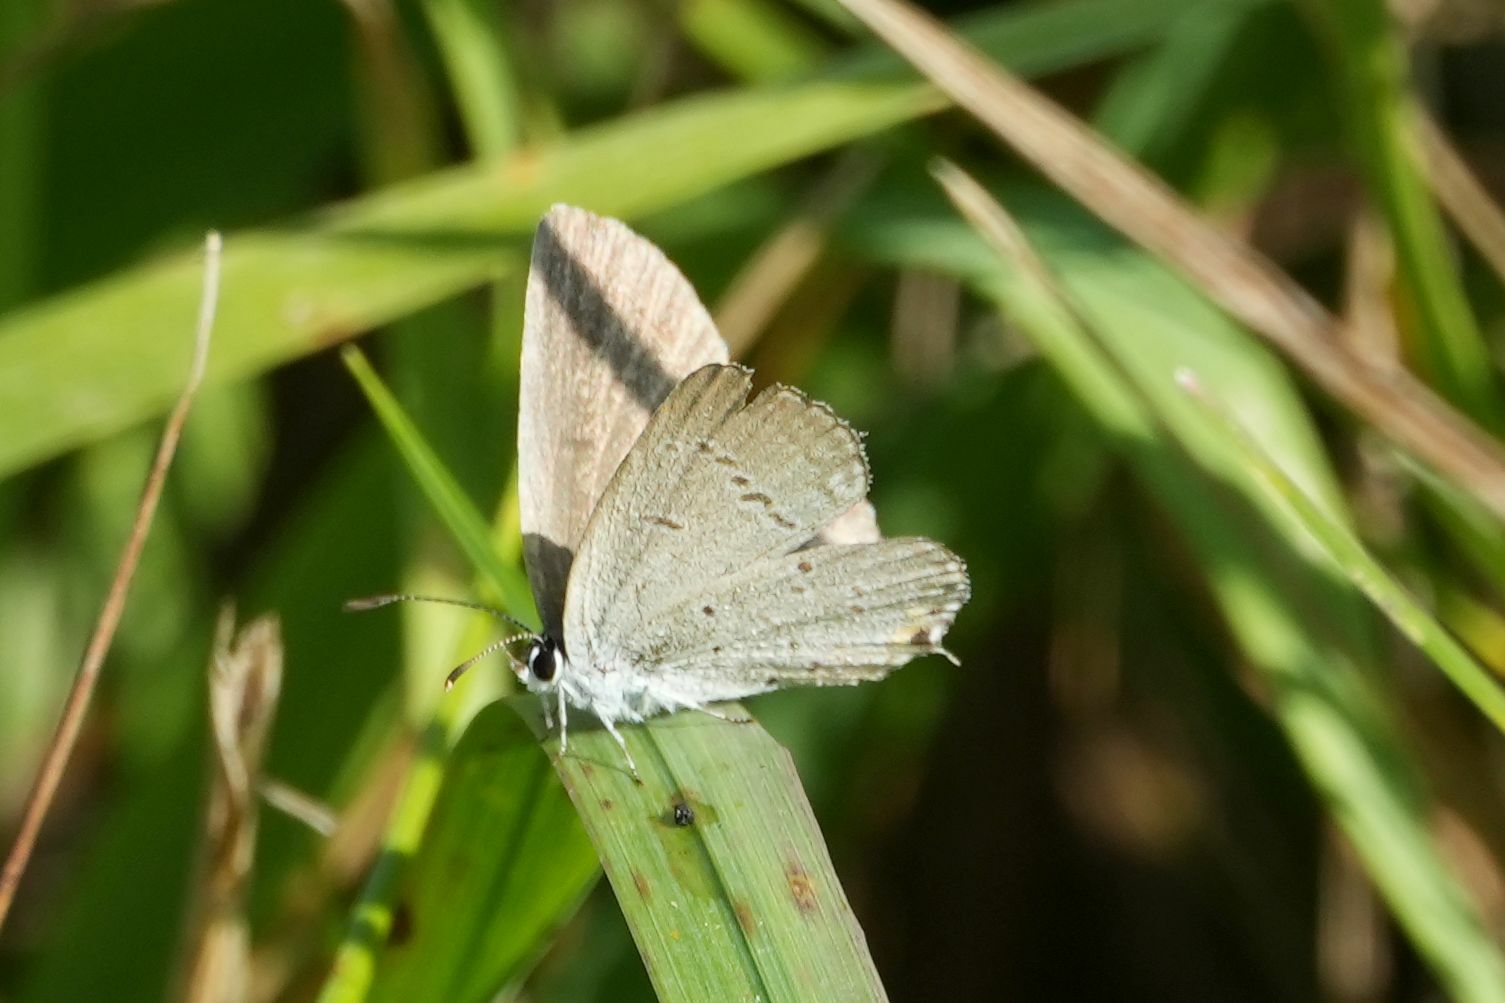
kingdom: Animalia
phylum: Arthropoda
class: Insecta
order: Lepidoptera
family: Lycaenidae
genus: Elkalyce
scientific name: Elkalyce comyntas
